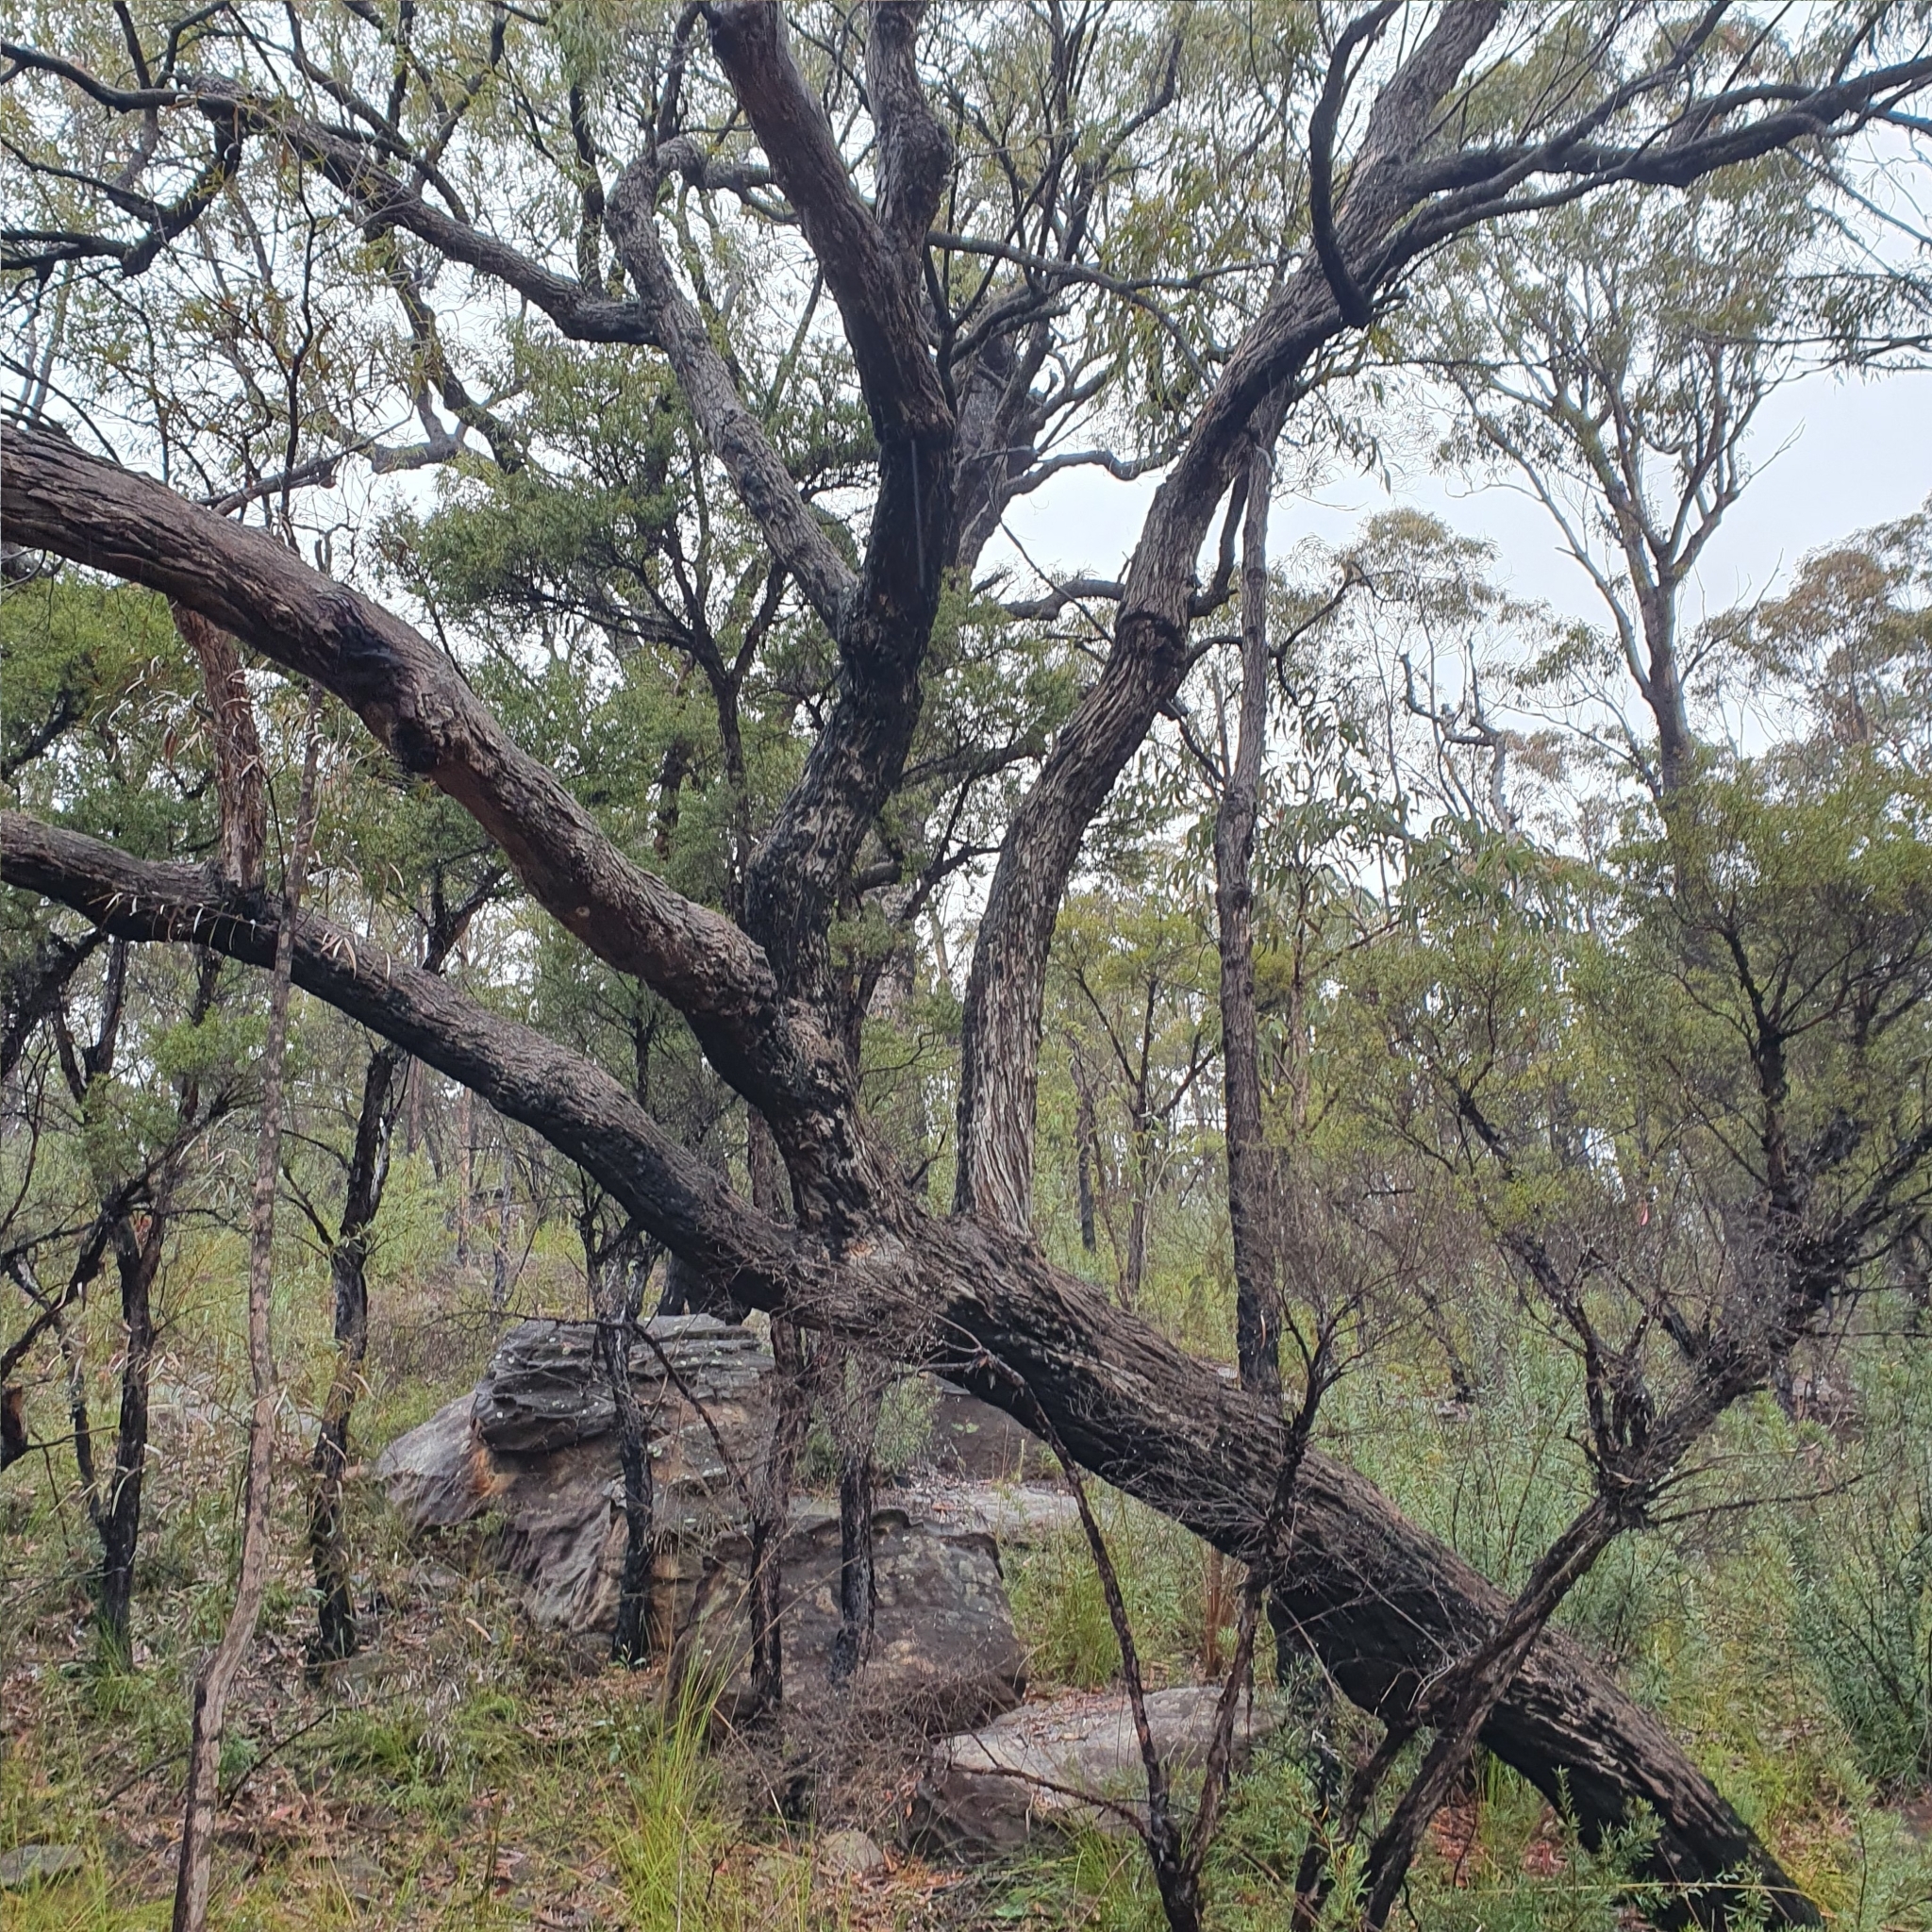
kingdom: Plantae
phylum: Tracheophyta
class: Magnoliopsida
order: Myrtales
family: Myrtaceae
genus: Angophora
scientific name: Angophora bakeri
